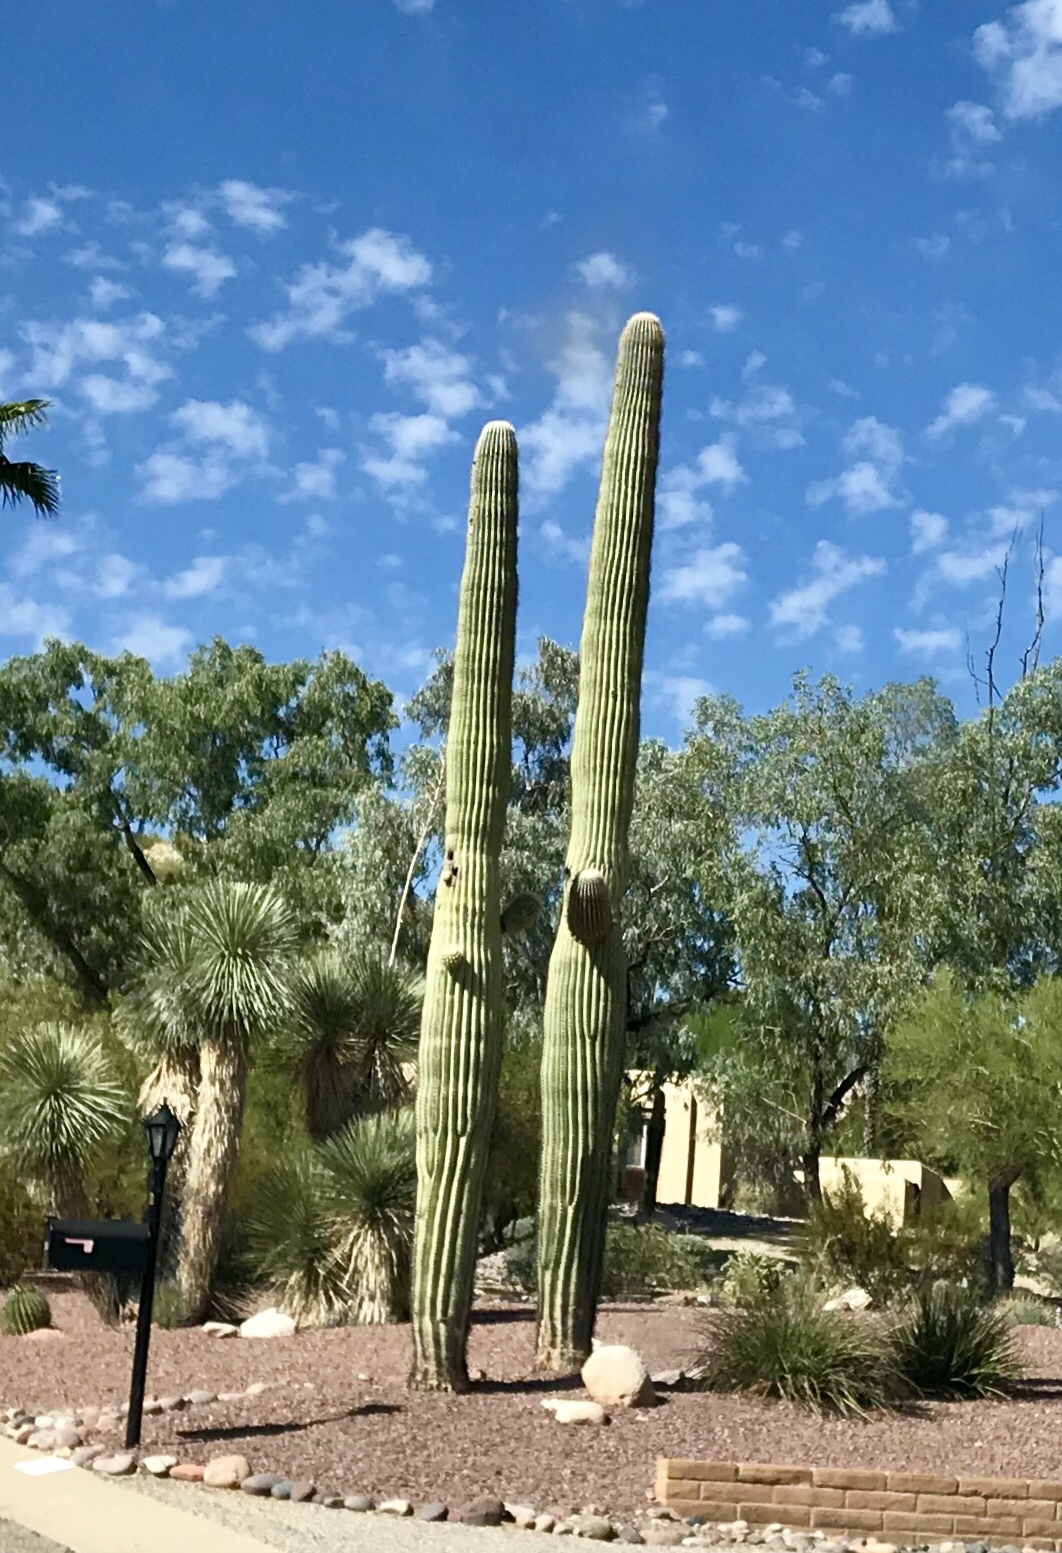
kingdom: Plantae
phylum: Tracheophyta
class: Magnoliopsida
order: Caryophyllales
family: Cactaceae
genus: Carnegiea
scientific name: Carnegiea gigantea
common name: Saguaro
